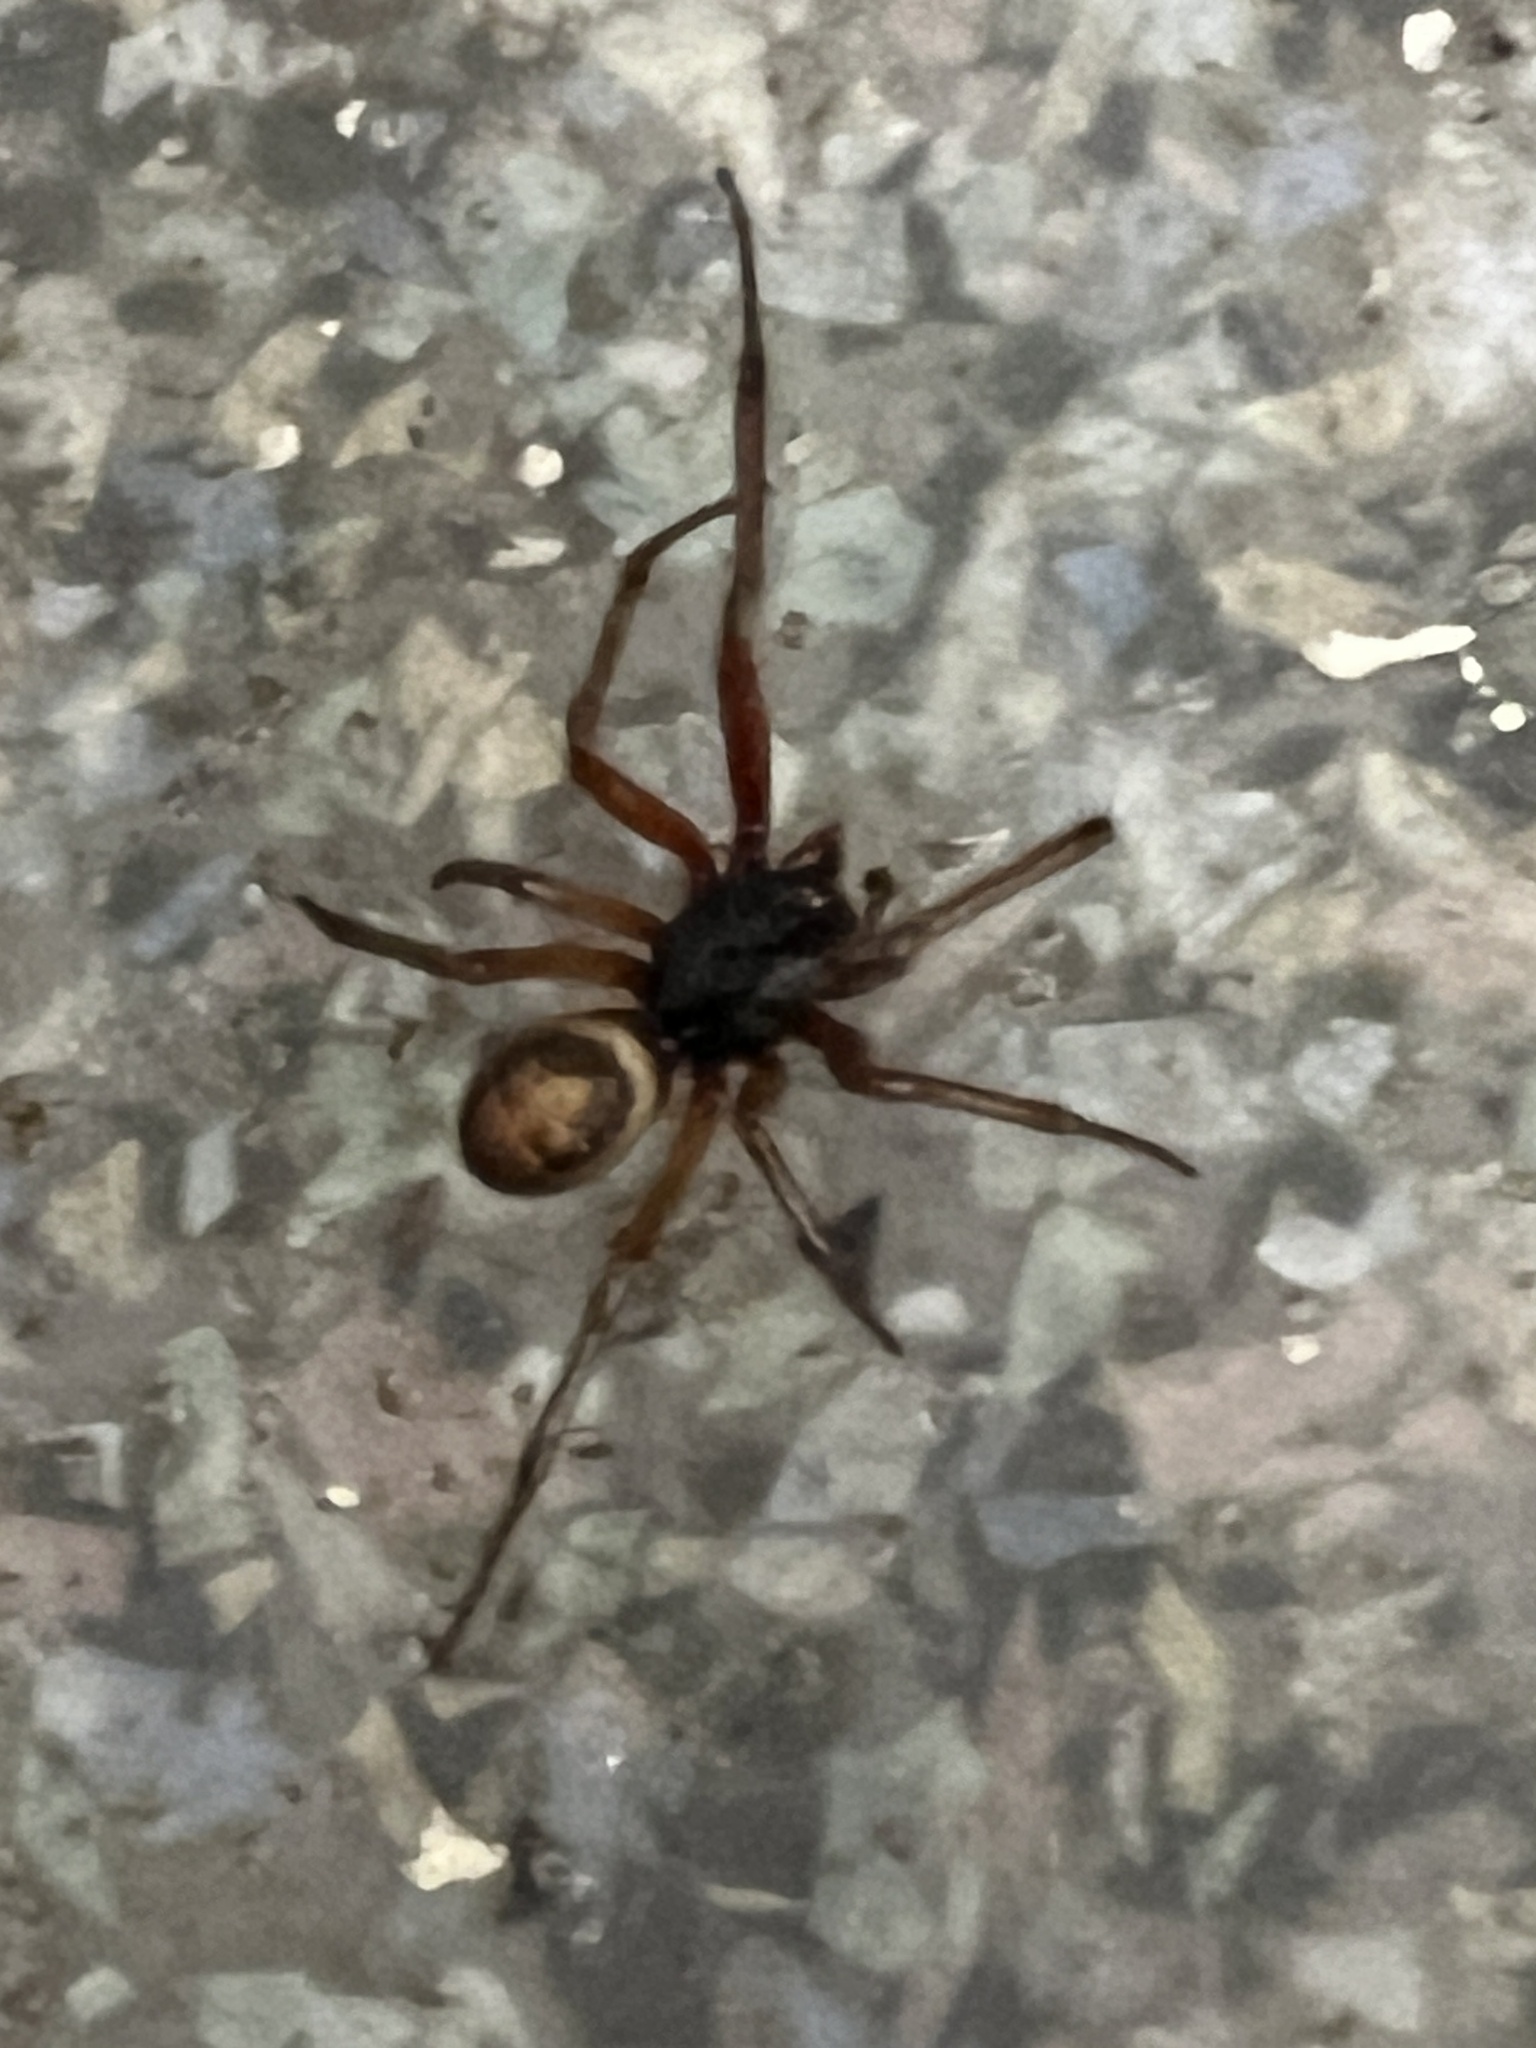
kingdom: Animalia
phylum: Arthropoda
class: Arachnida
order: Araneae
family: Theridiidae
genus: Steatoda
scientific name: Steatoda nobilis
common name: Cobweb weaver
